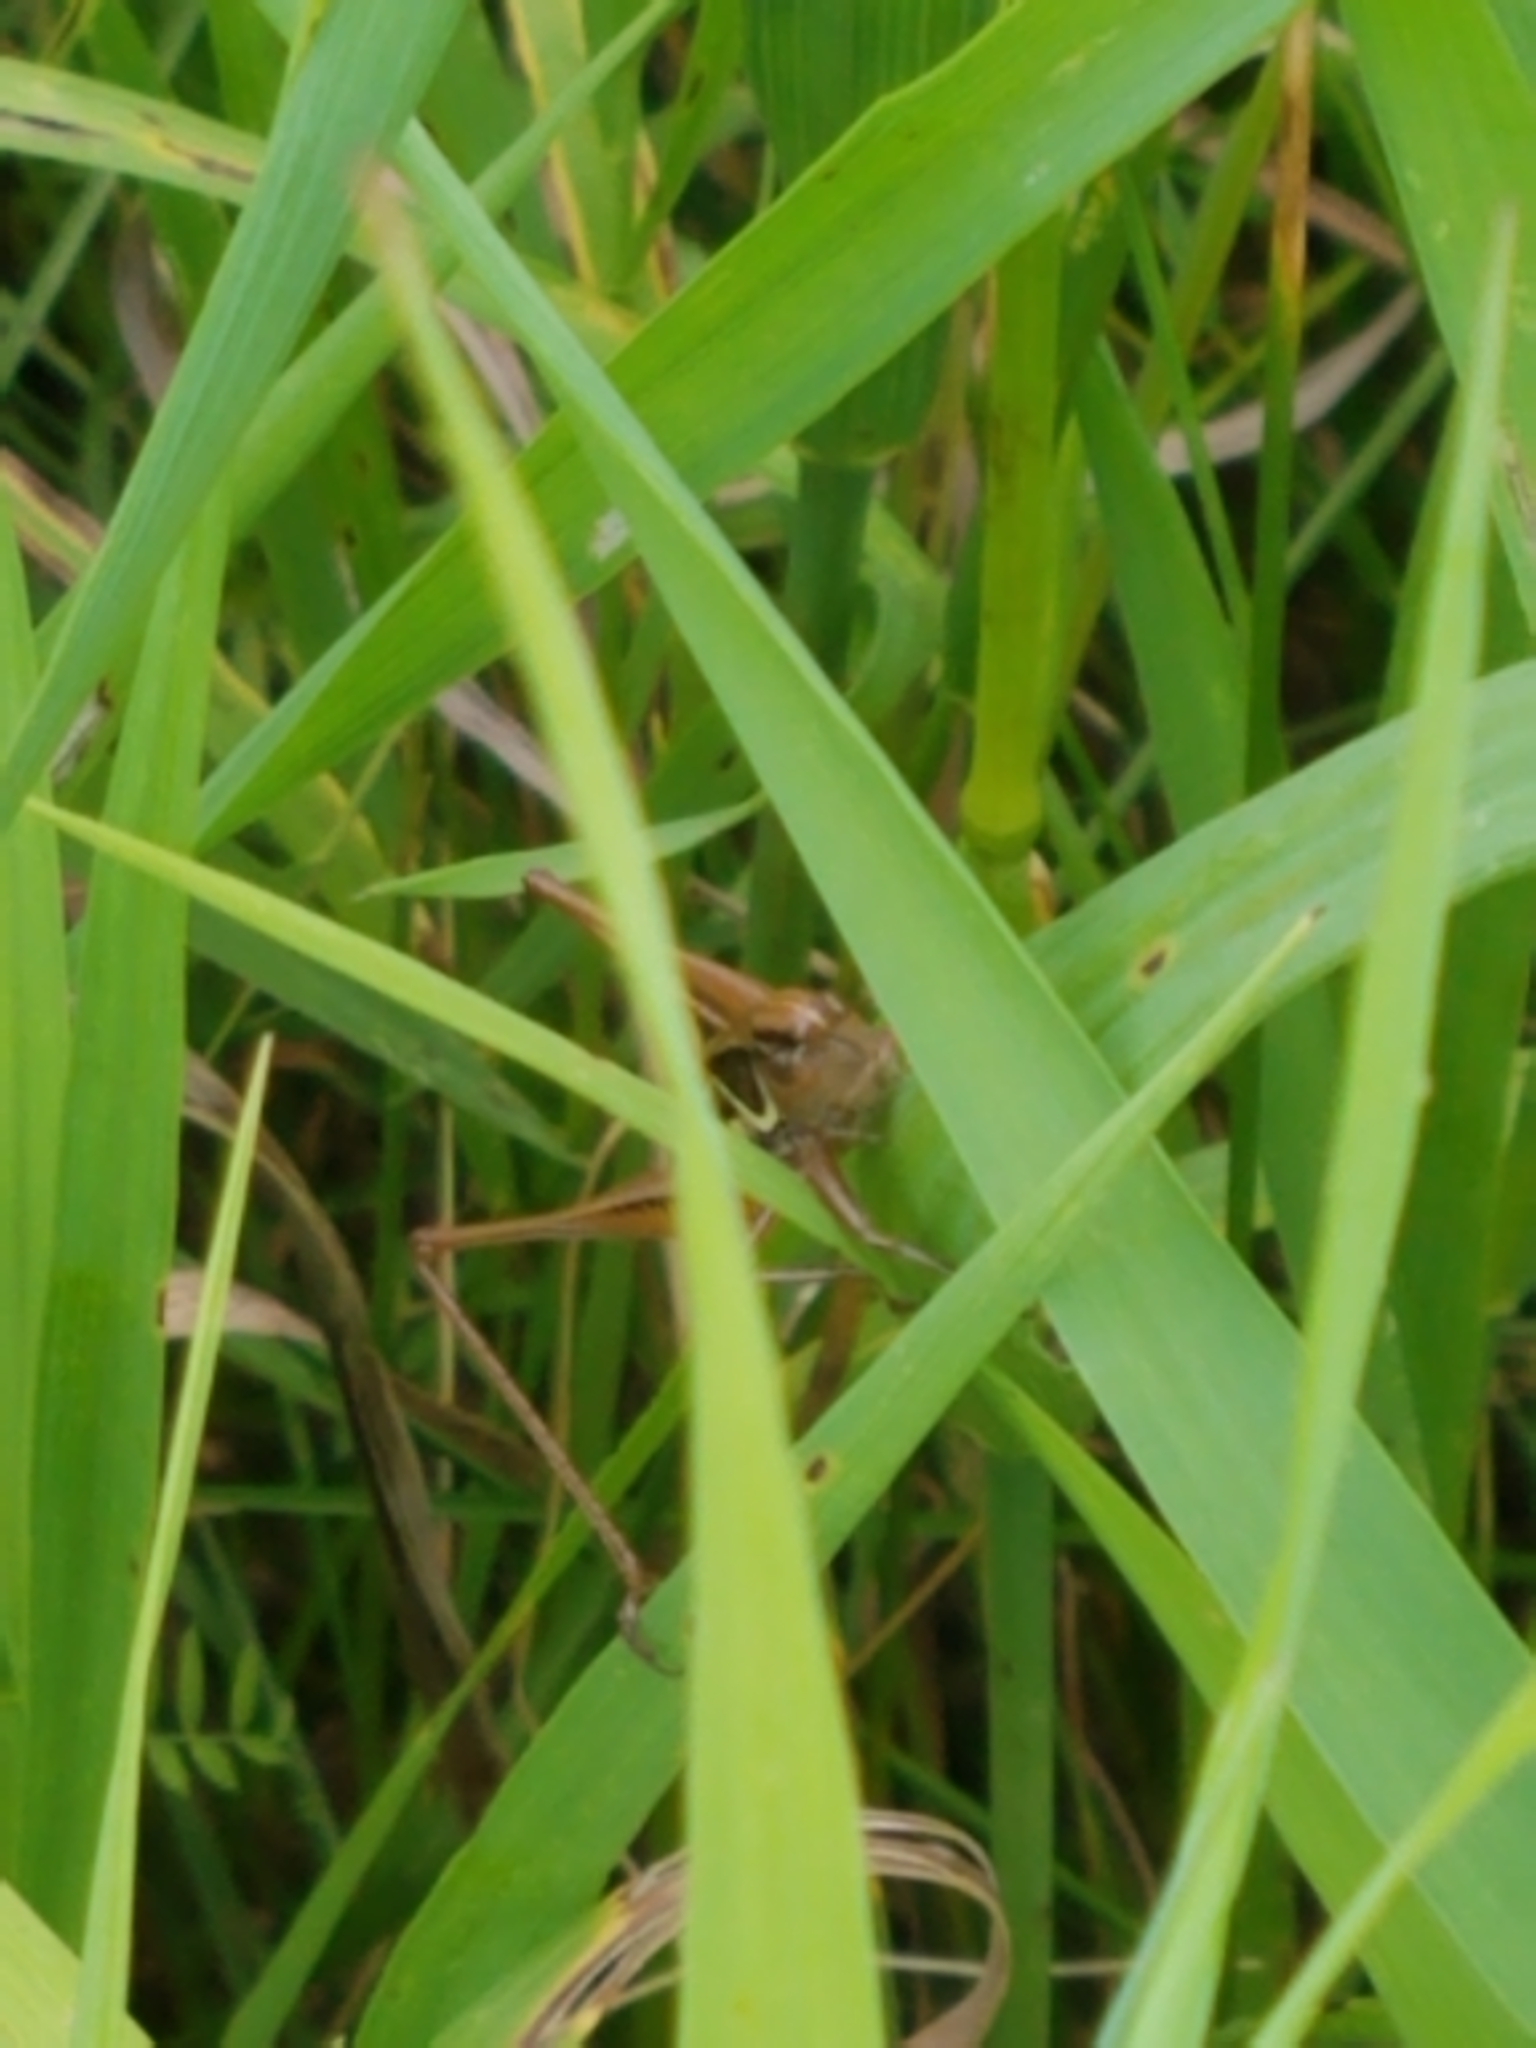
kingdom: Animalia
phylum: Arthropoda
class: Insecta
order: Orthoptera
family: Tettigoniidae
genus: Roeseliana
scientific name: Roeseliana roeselii
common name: Roesel's bush cricket
